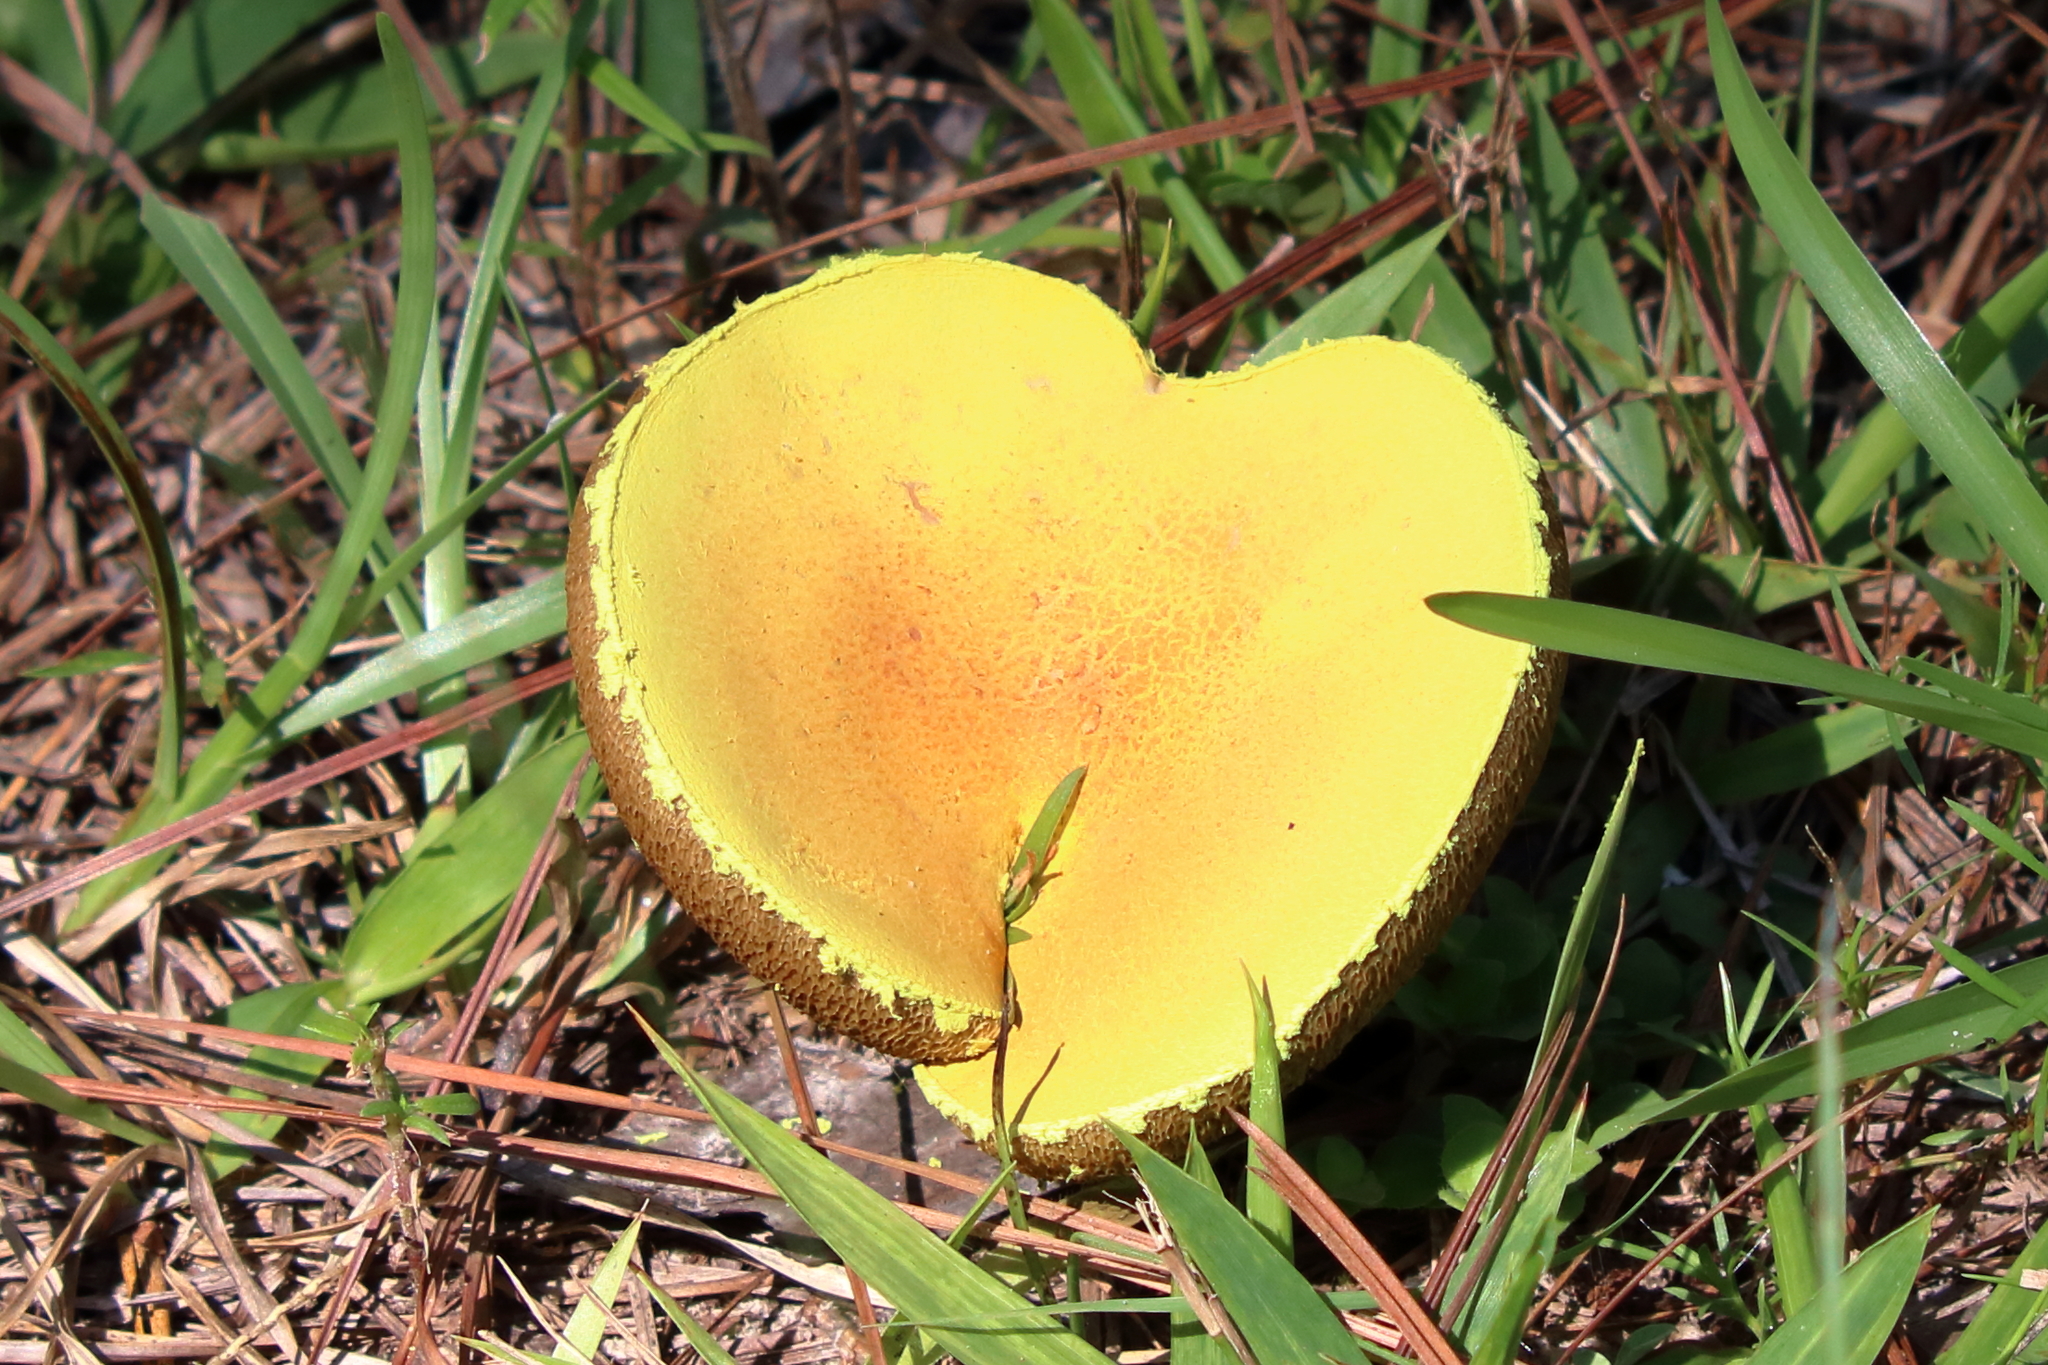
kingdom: Fungi
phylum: Basidiomycota
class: Agaricomycetes
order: Boletales
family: Boletaceae
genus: Pulveroboletus
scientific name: Pulveroboletus ravenelii
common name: Powdery sulfur bolete
